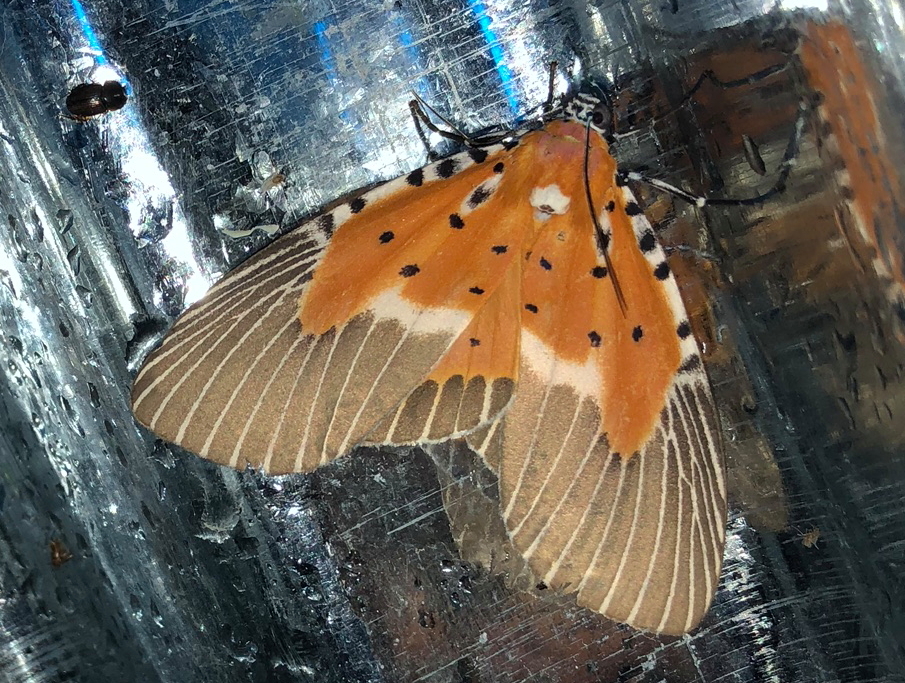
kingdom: Animalia
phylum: Arthropoda
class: Insecta
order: Lepidoptera
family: Erebidae
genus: Peridrome
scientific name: Peridrome subfascia
